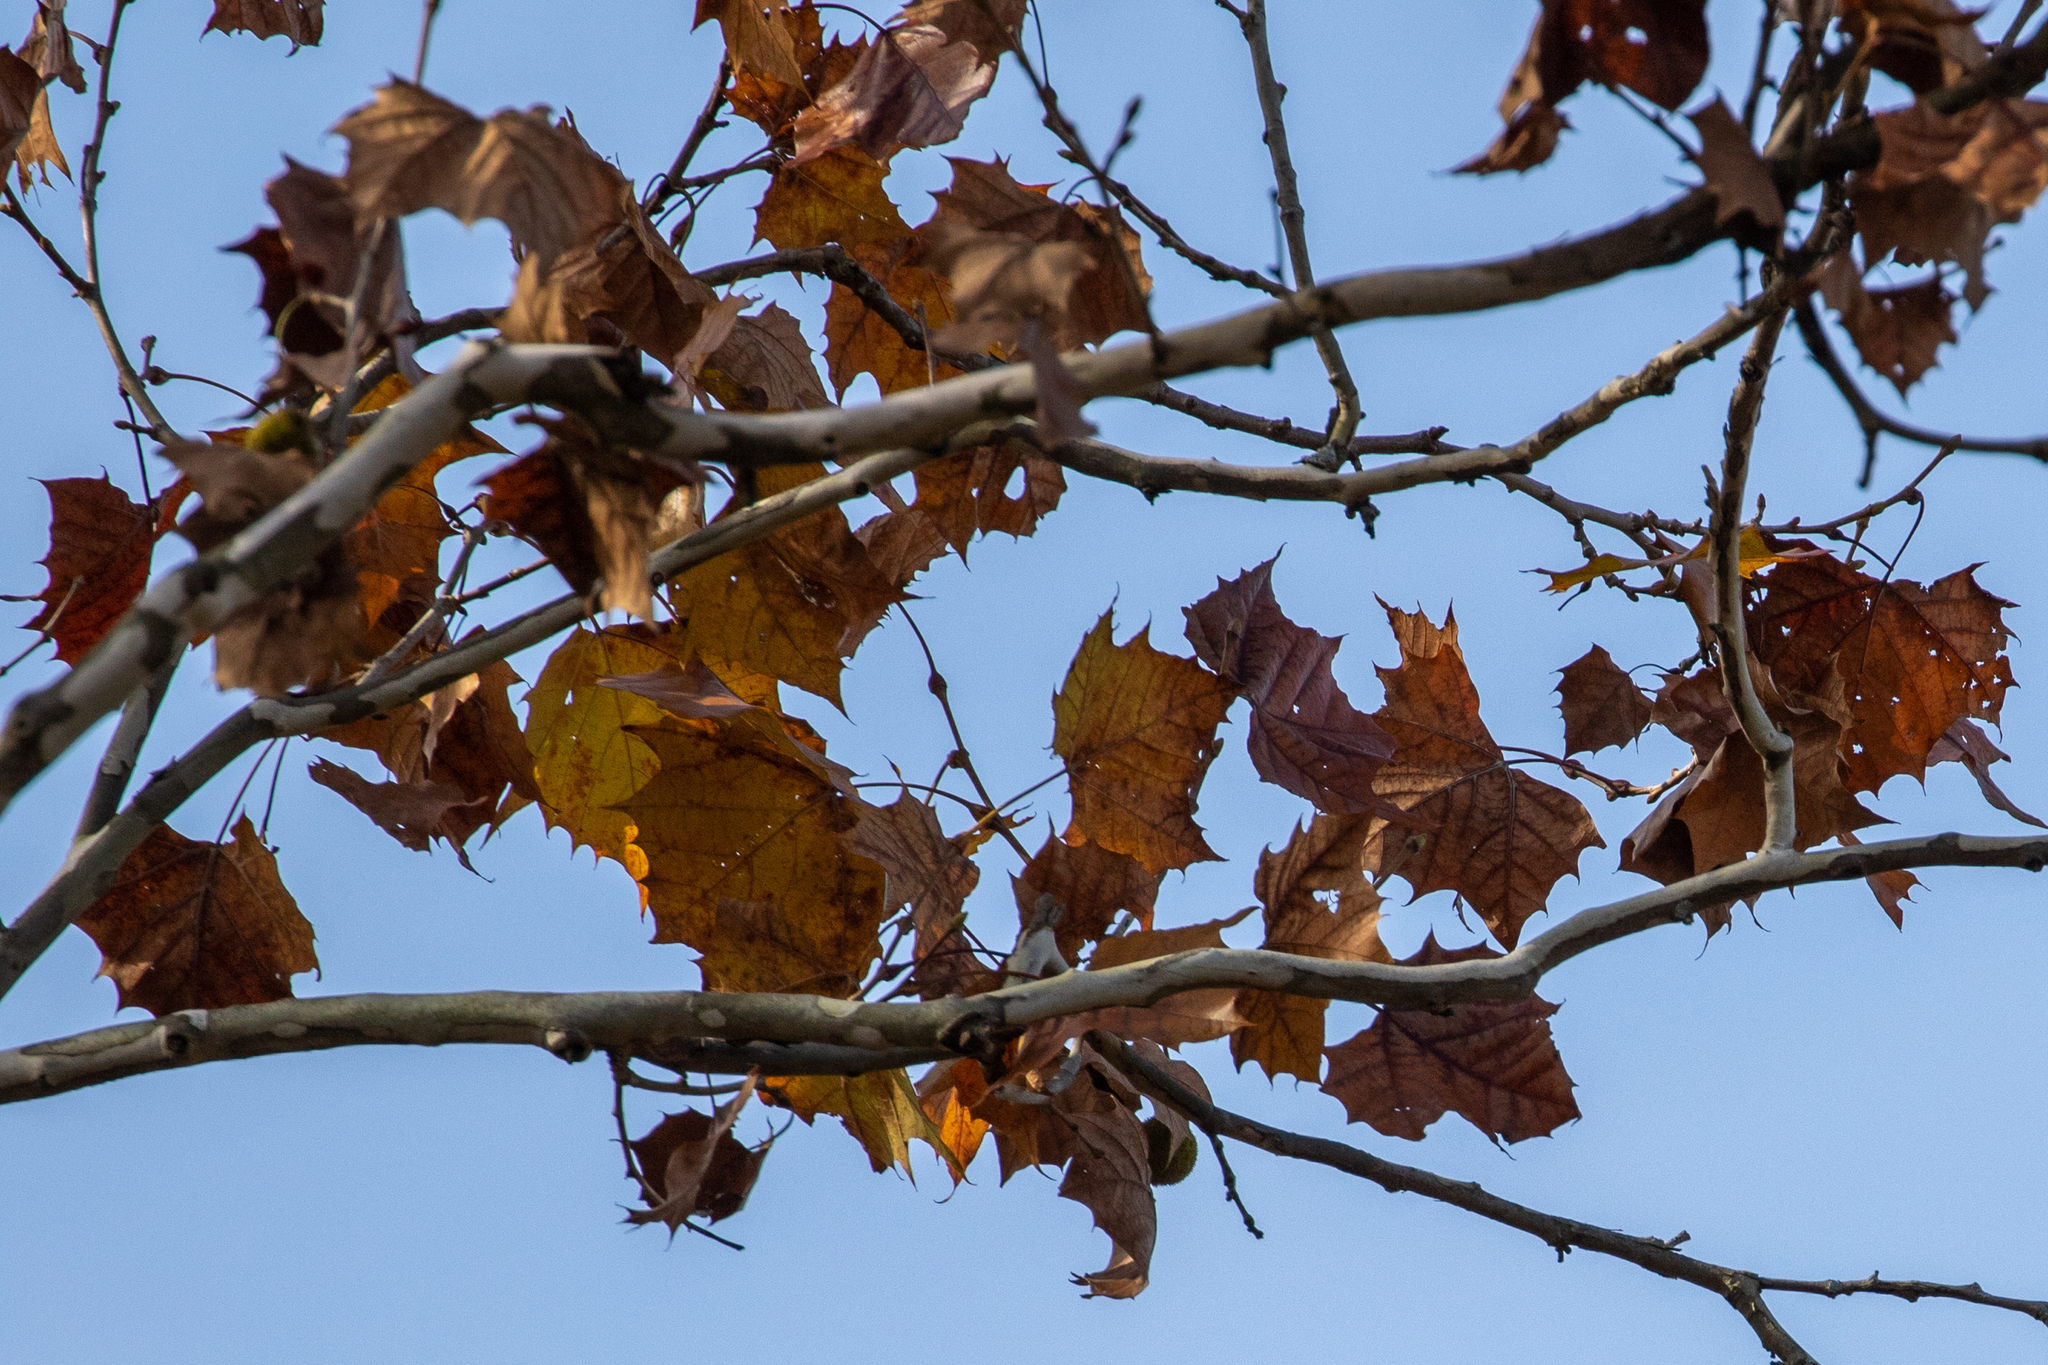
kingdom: Plantae
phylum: Tracheophyta
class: Magnoliopsida
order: Proteales
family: Platanaceae
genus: Platanus
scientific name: Platanus occidentalis
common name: American sycamore
